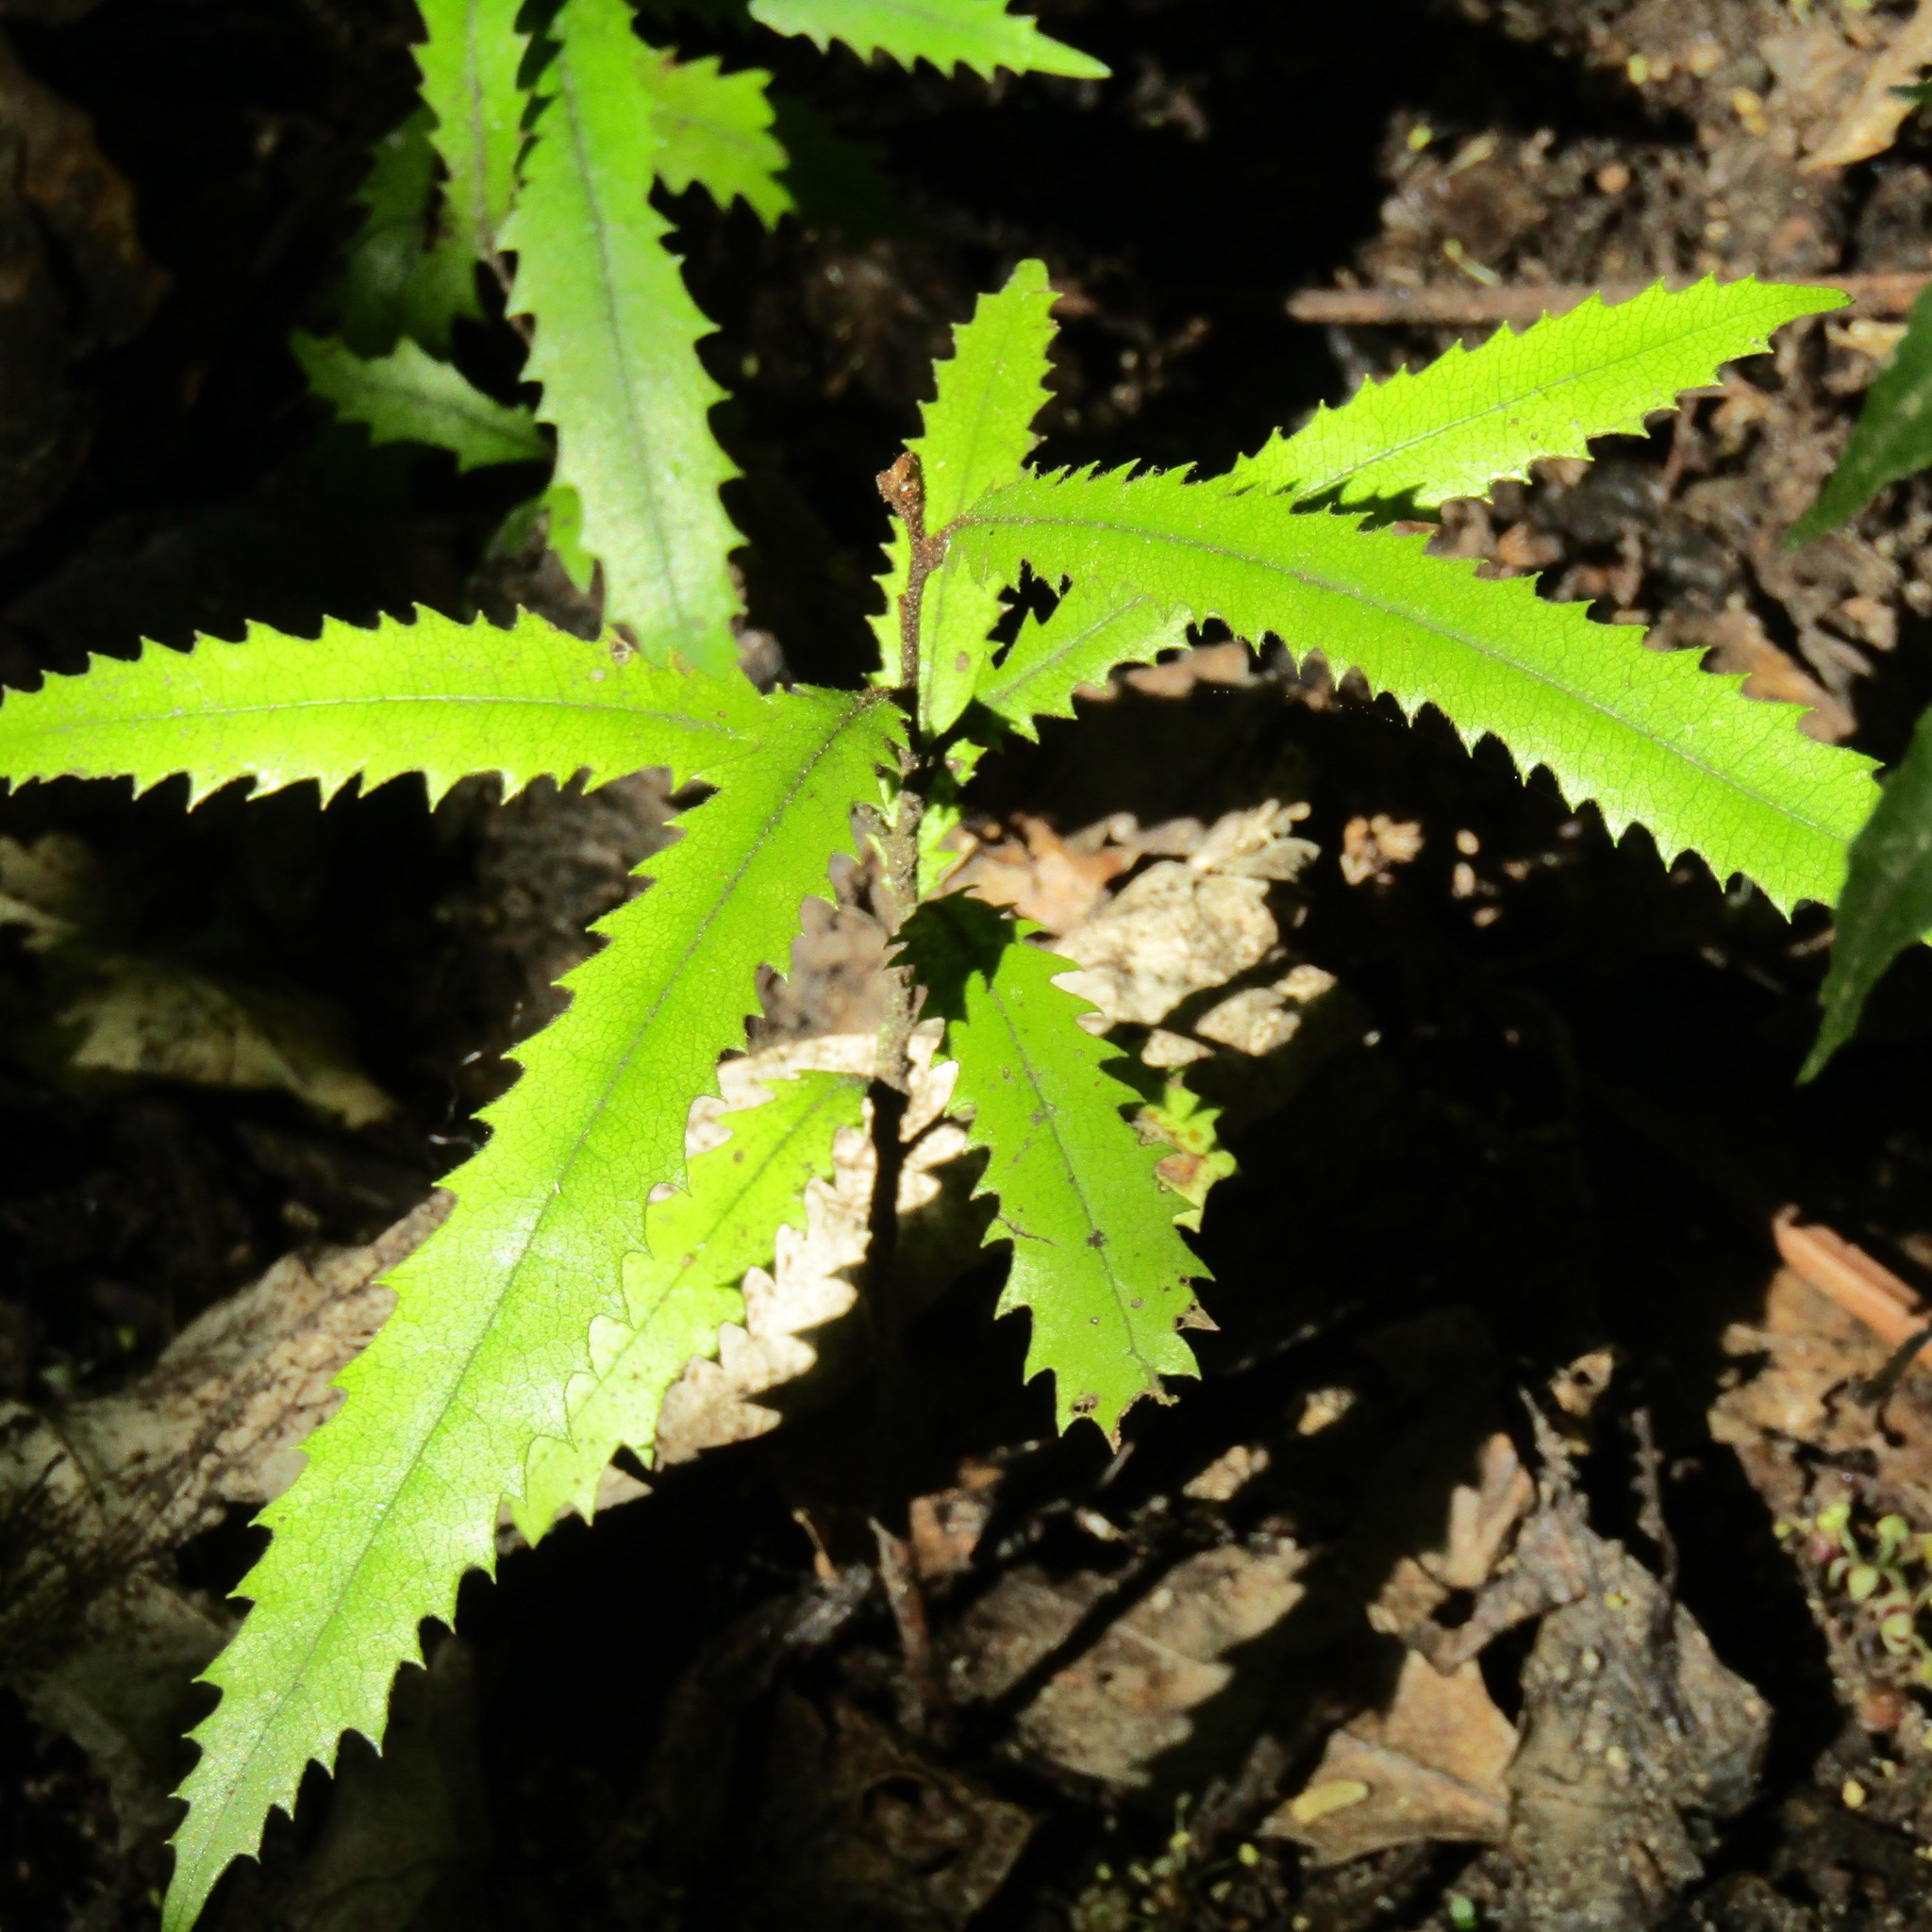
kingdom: Plantae
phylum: Tracheophyta
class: Magnoliopsida
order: Proteales
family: Proteaceae
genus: Knightia
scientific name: Knightia excelsa
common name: New zealand-honeysuckle
